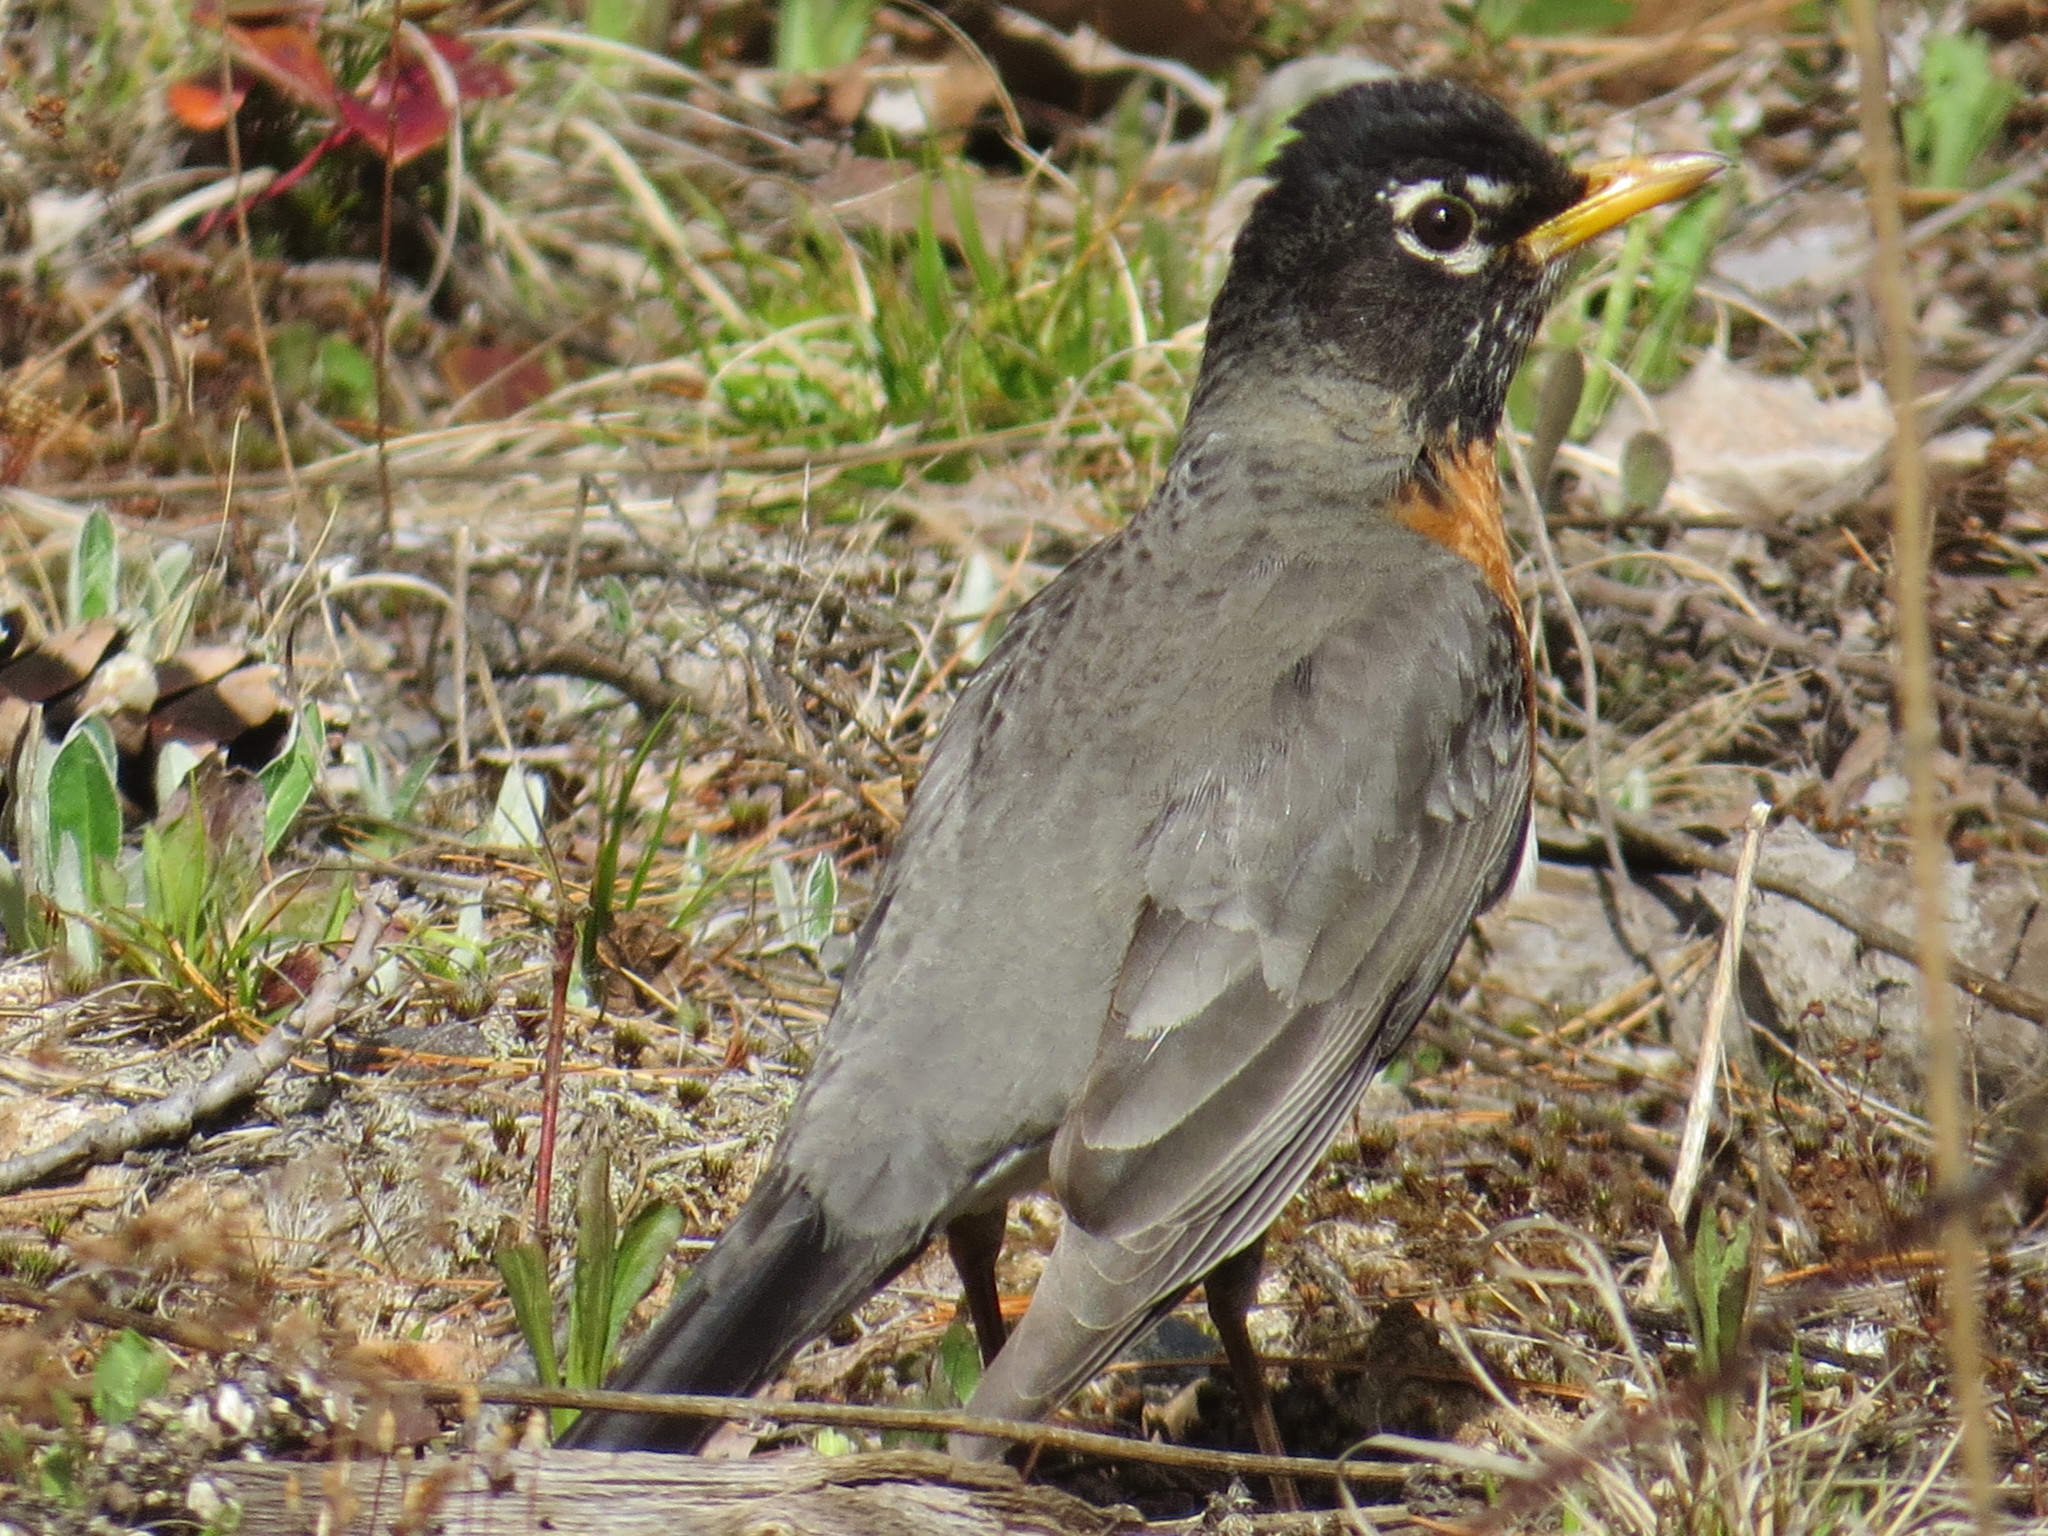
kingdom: Animalia
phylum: Chordata
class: Aves
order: Passeriformes
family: Turdidae
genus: Turdus
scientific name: Turdus migratorius
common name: American robin
